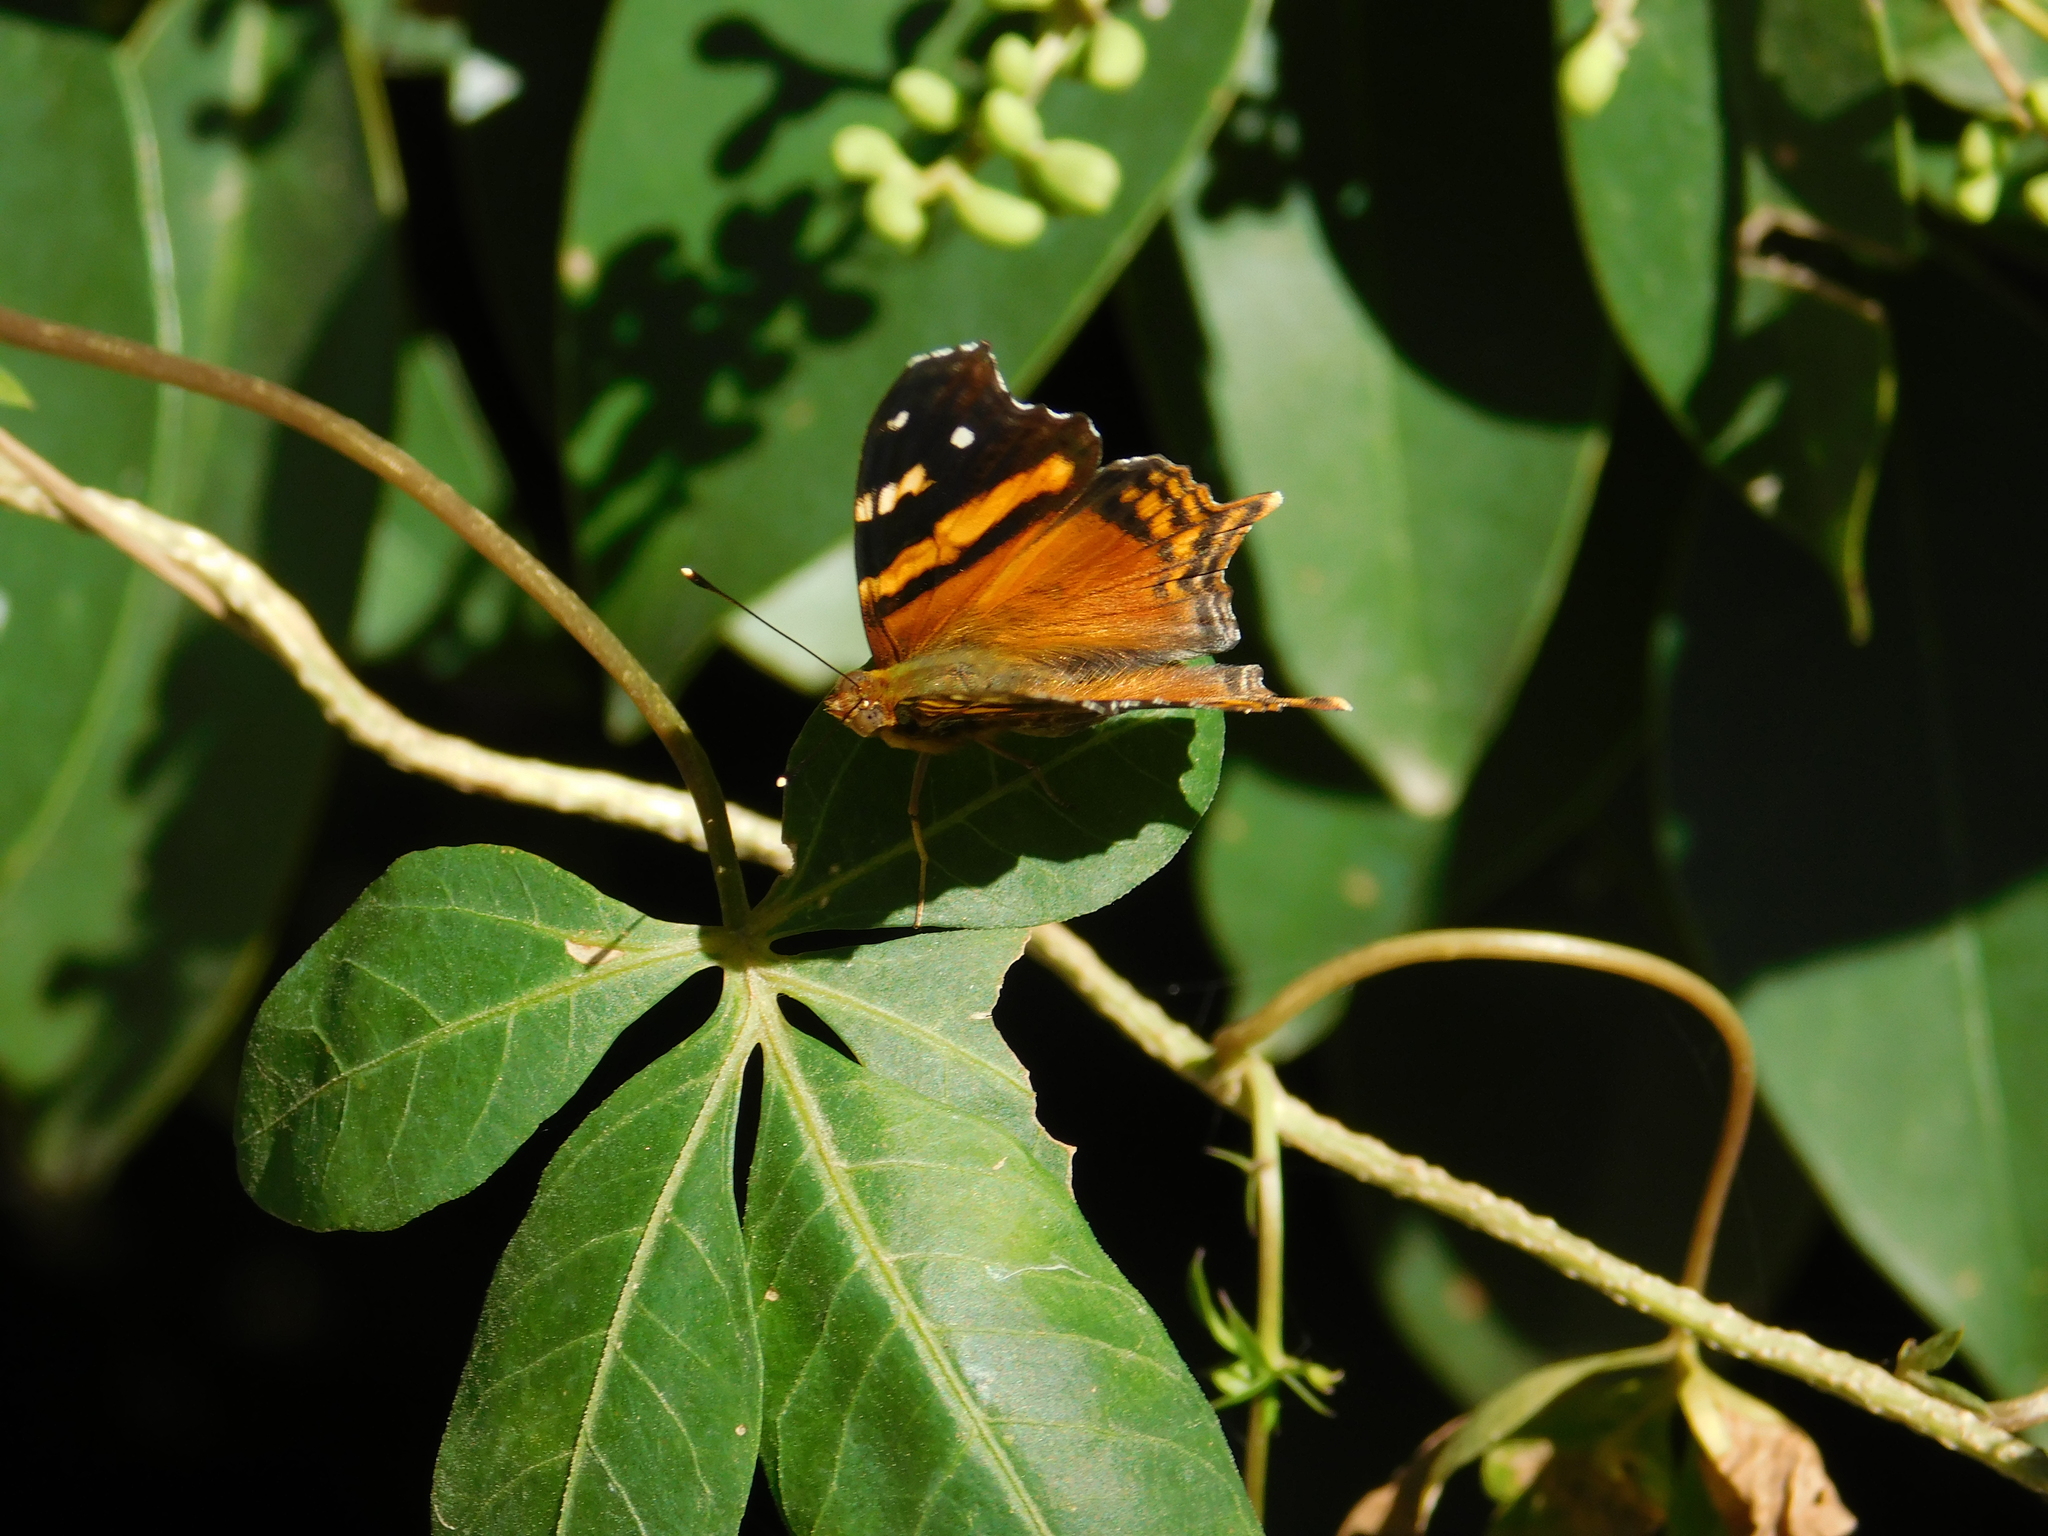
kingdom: Animalia
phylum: Arthropoda
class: Insecta
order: Lepidoptera
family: Nymphalidae
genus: Hypanartia
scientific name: Hypanartia bella
